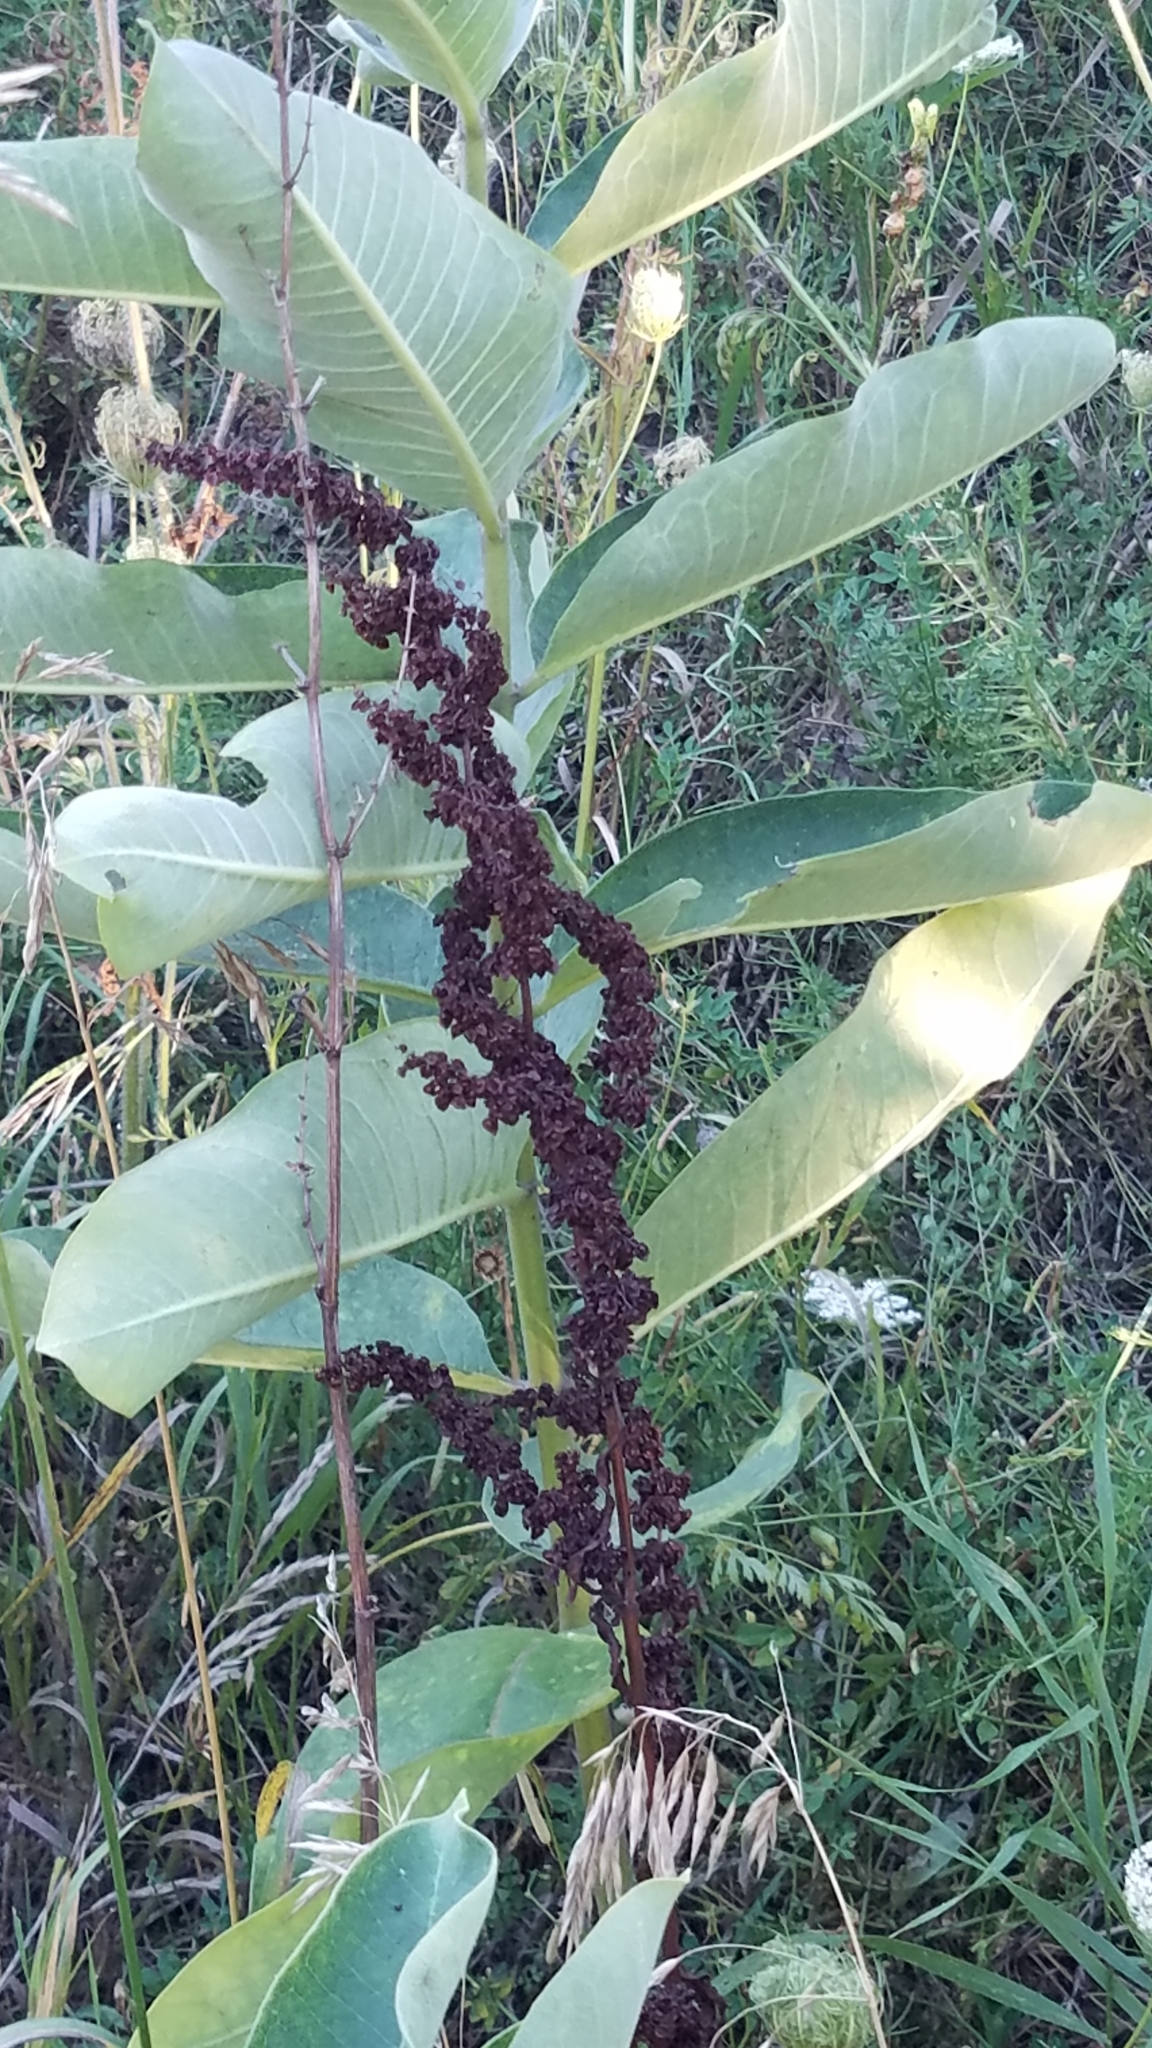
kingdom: Plantae
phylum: Tracheophyta
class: Magnoliopsida
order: Caryophyllales
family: Polygonaceae
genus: Rumex
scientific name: Rumex crispus
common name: Curled dock
